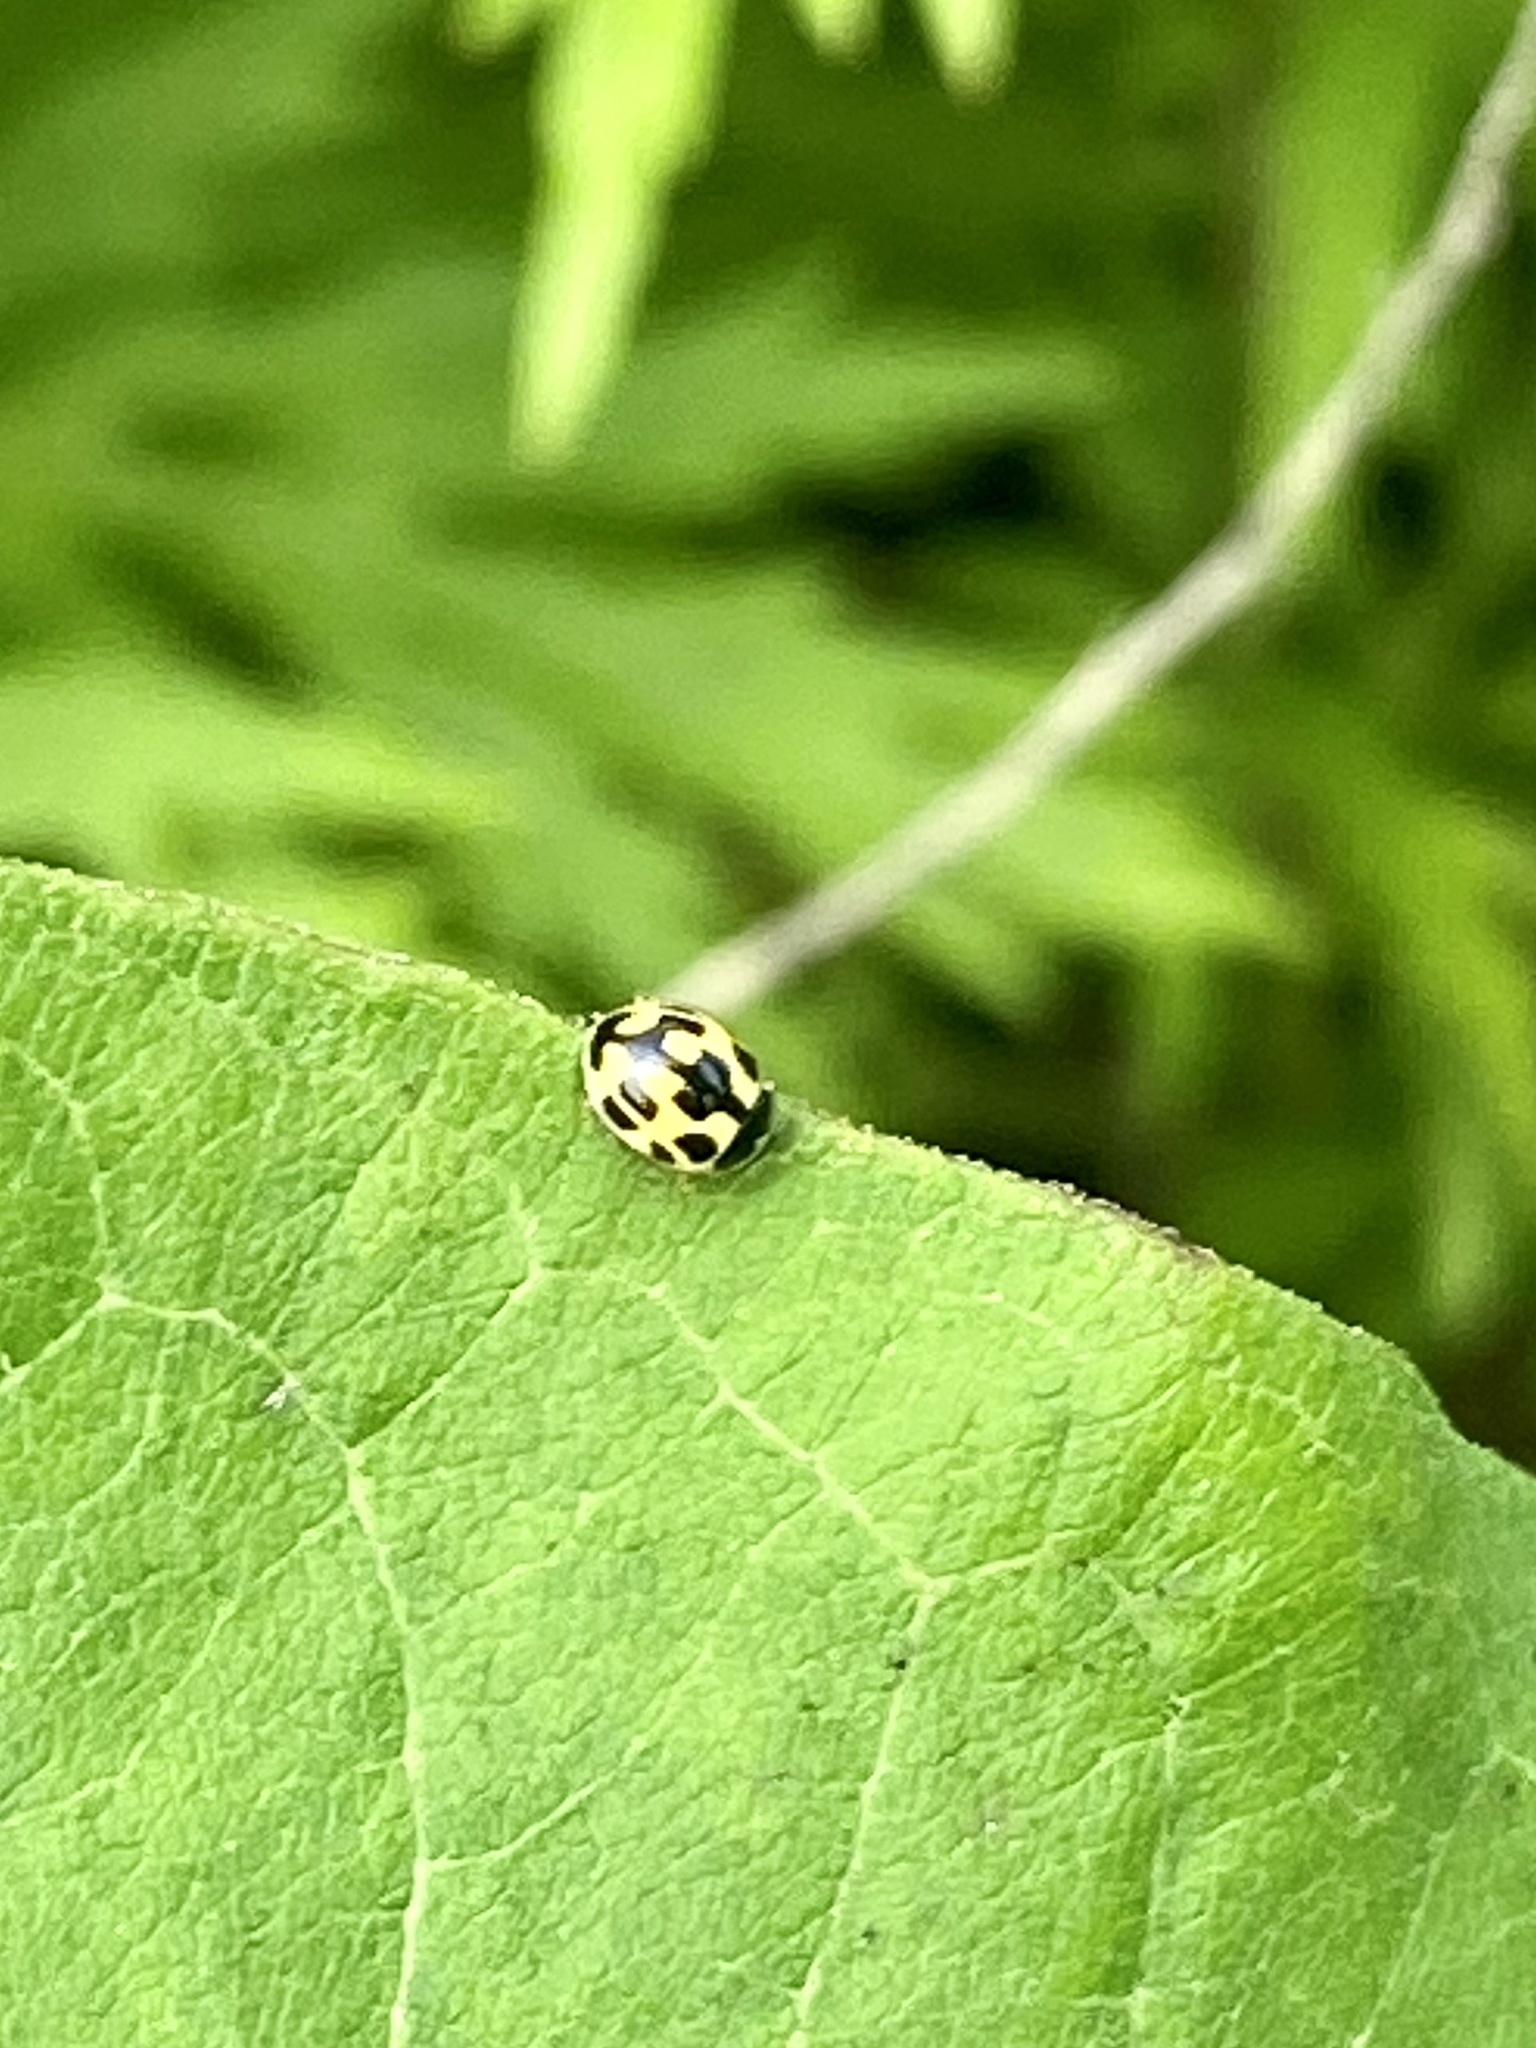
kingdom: Animalia
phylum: Arthropoda
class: Insecta
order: Coleoptera
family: Coccinellidae
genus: Propylaea
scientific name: Propylaea quatuordecimpunctata
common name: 14-spotted ladybird beetle
